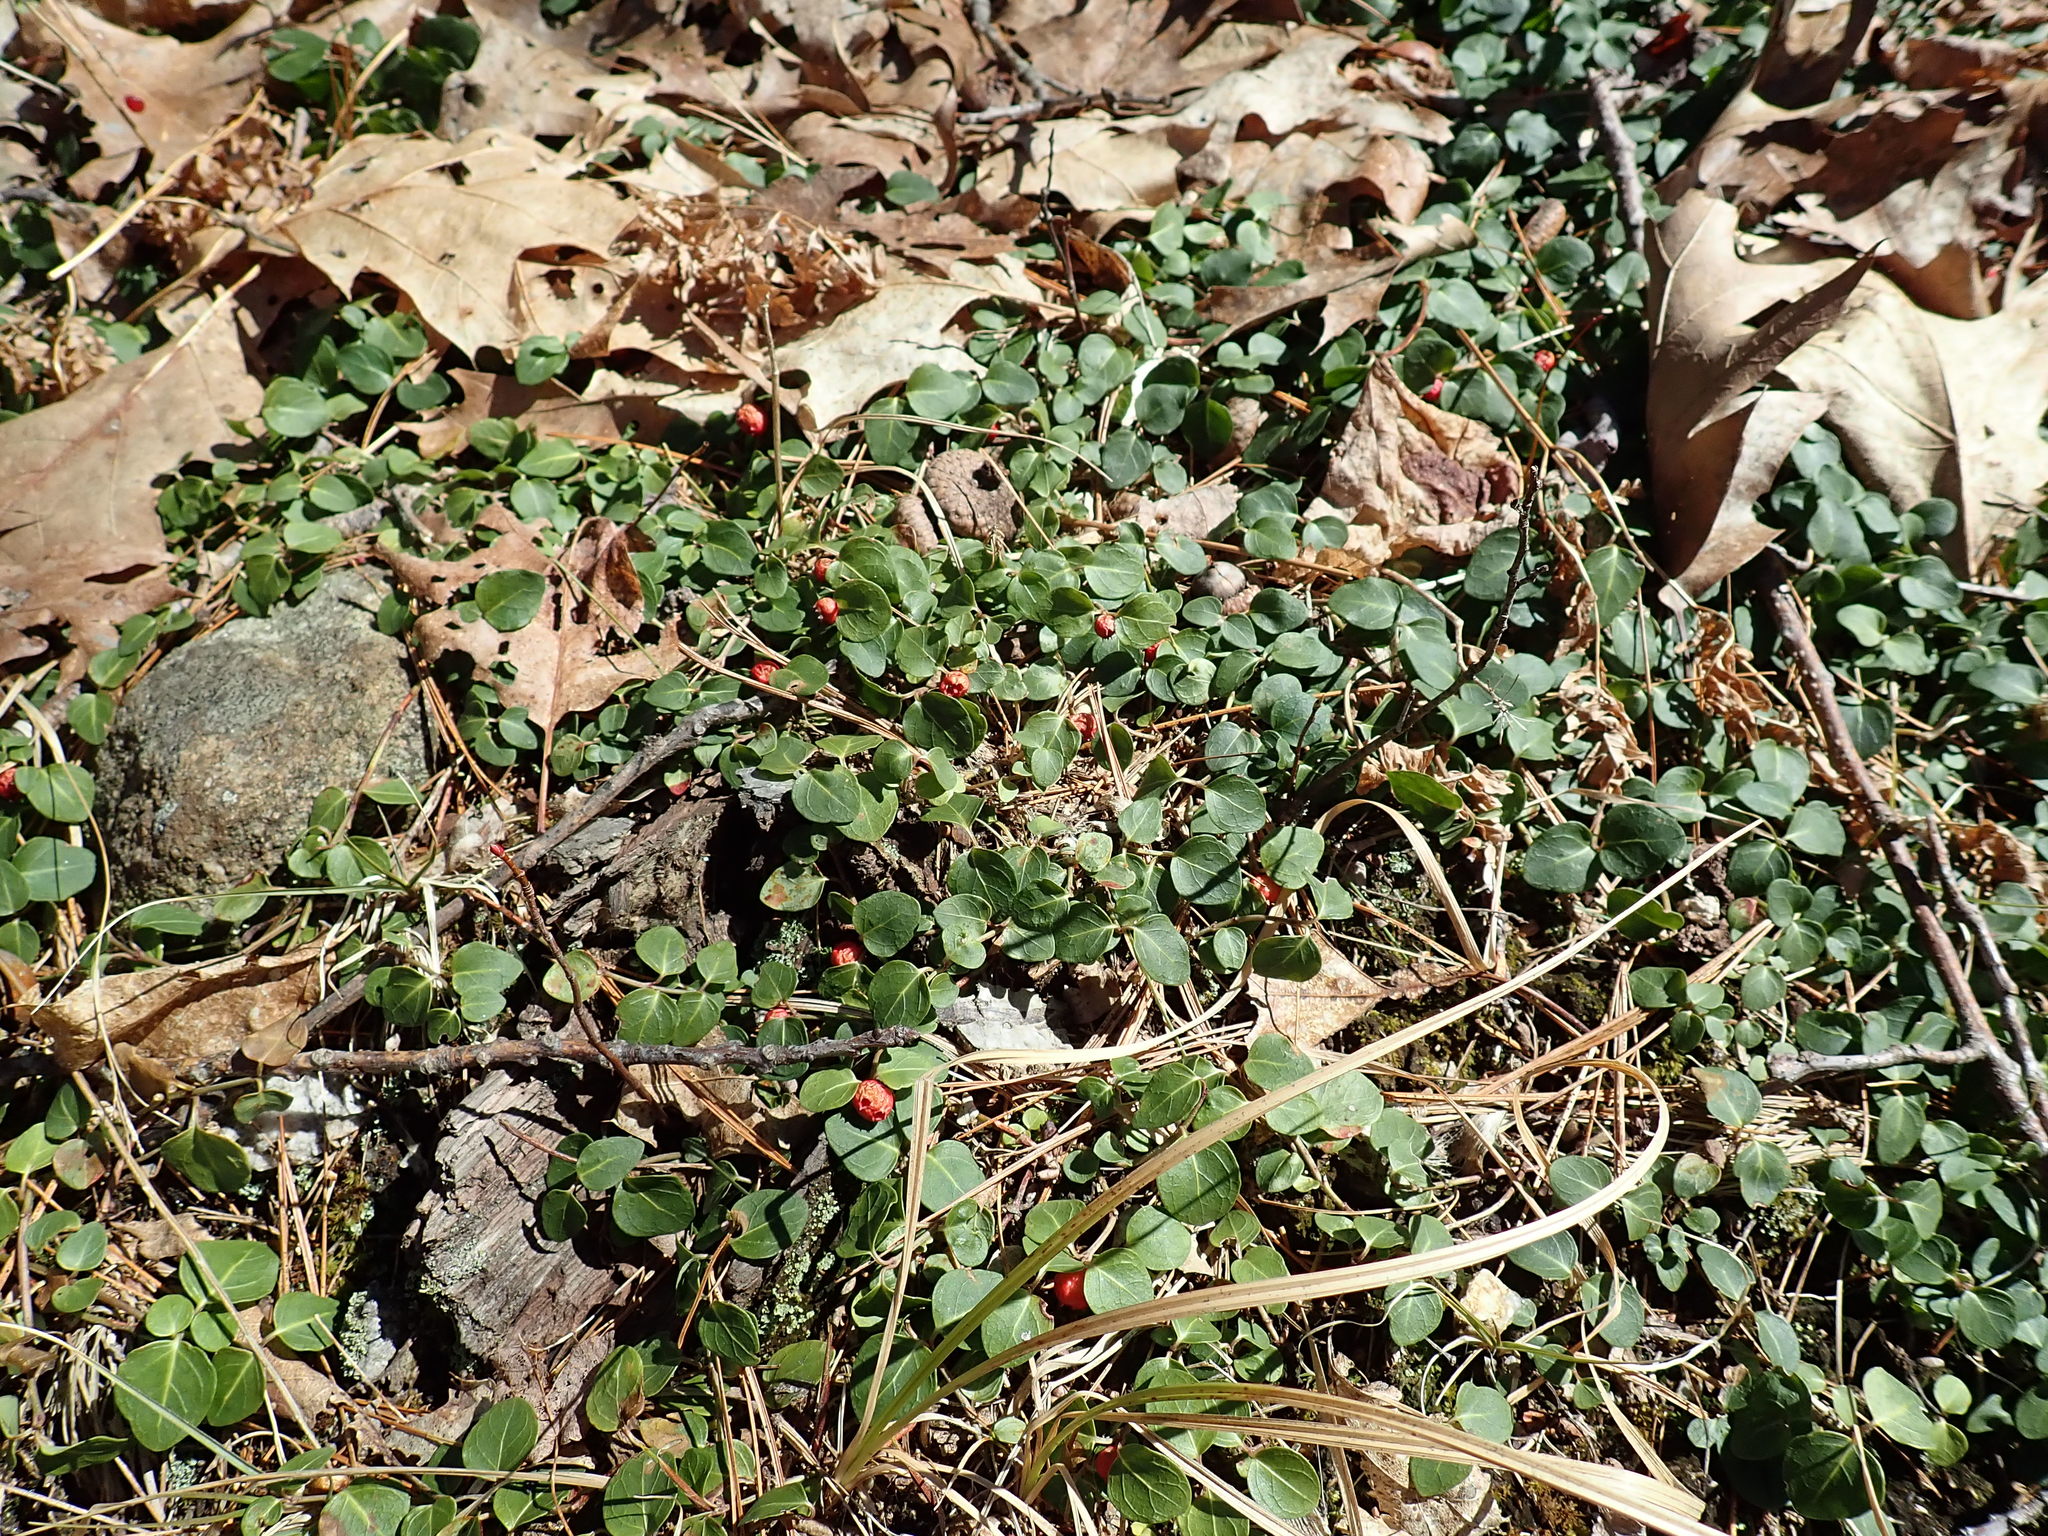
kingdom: Plantae
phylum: Tracheophyta
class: Magnoliopsida
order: Gentianales
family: Rubiaceae
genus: Mitchella
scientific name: Mitchella repens
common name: Partridge-berry
